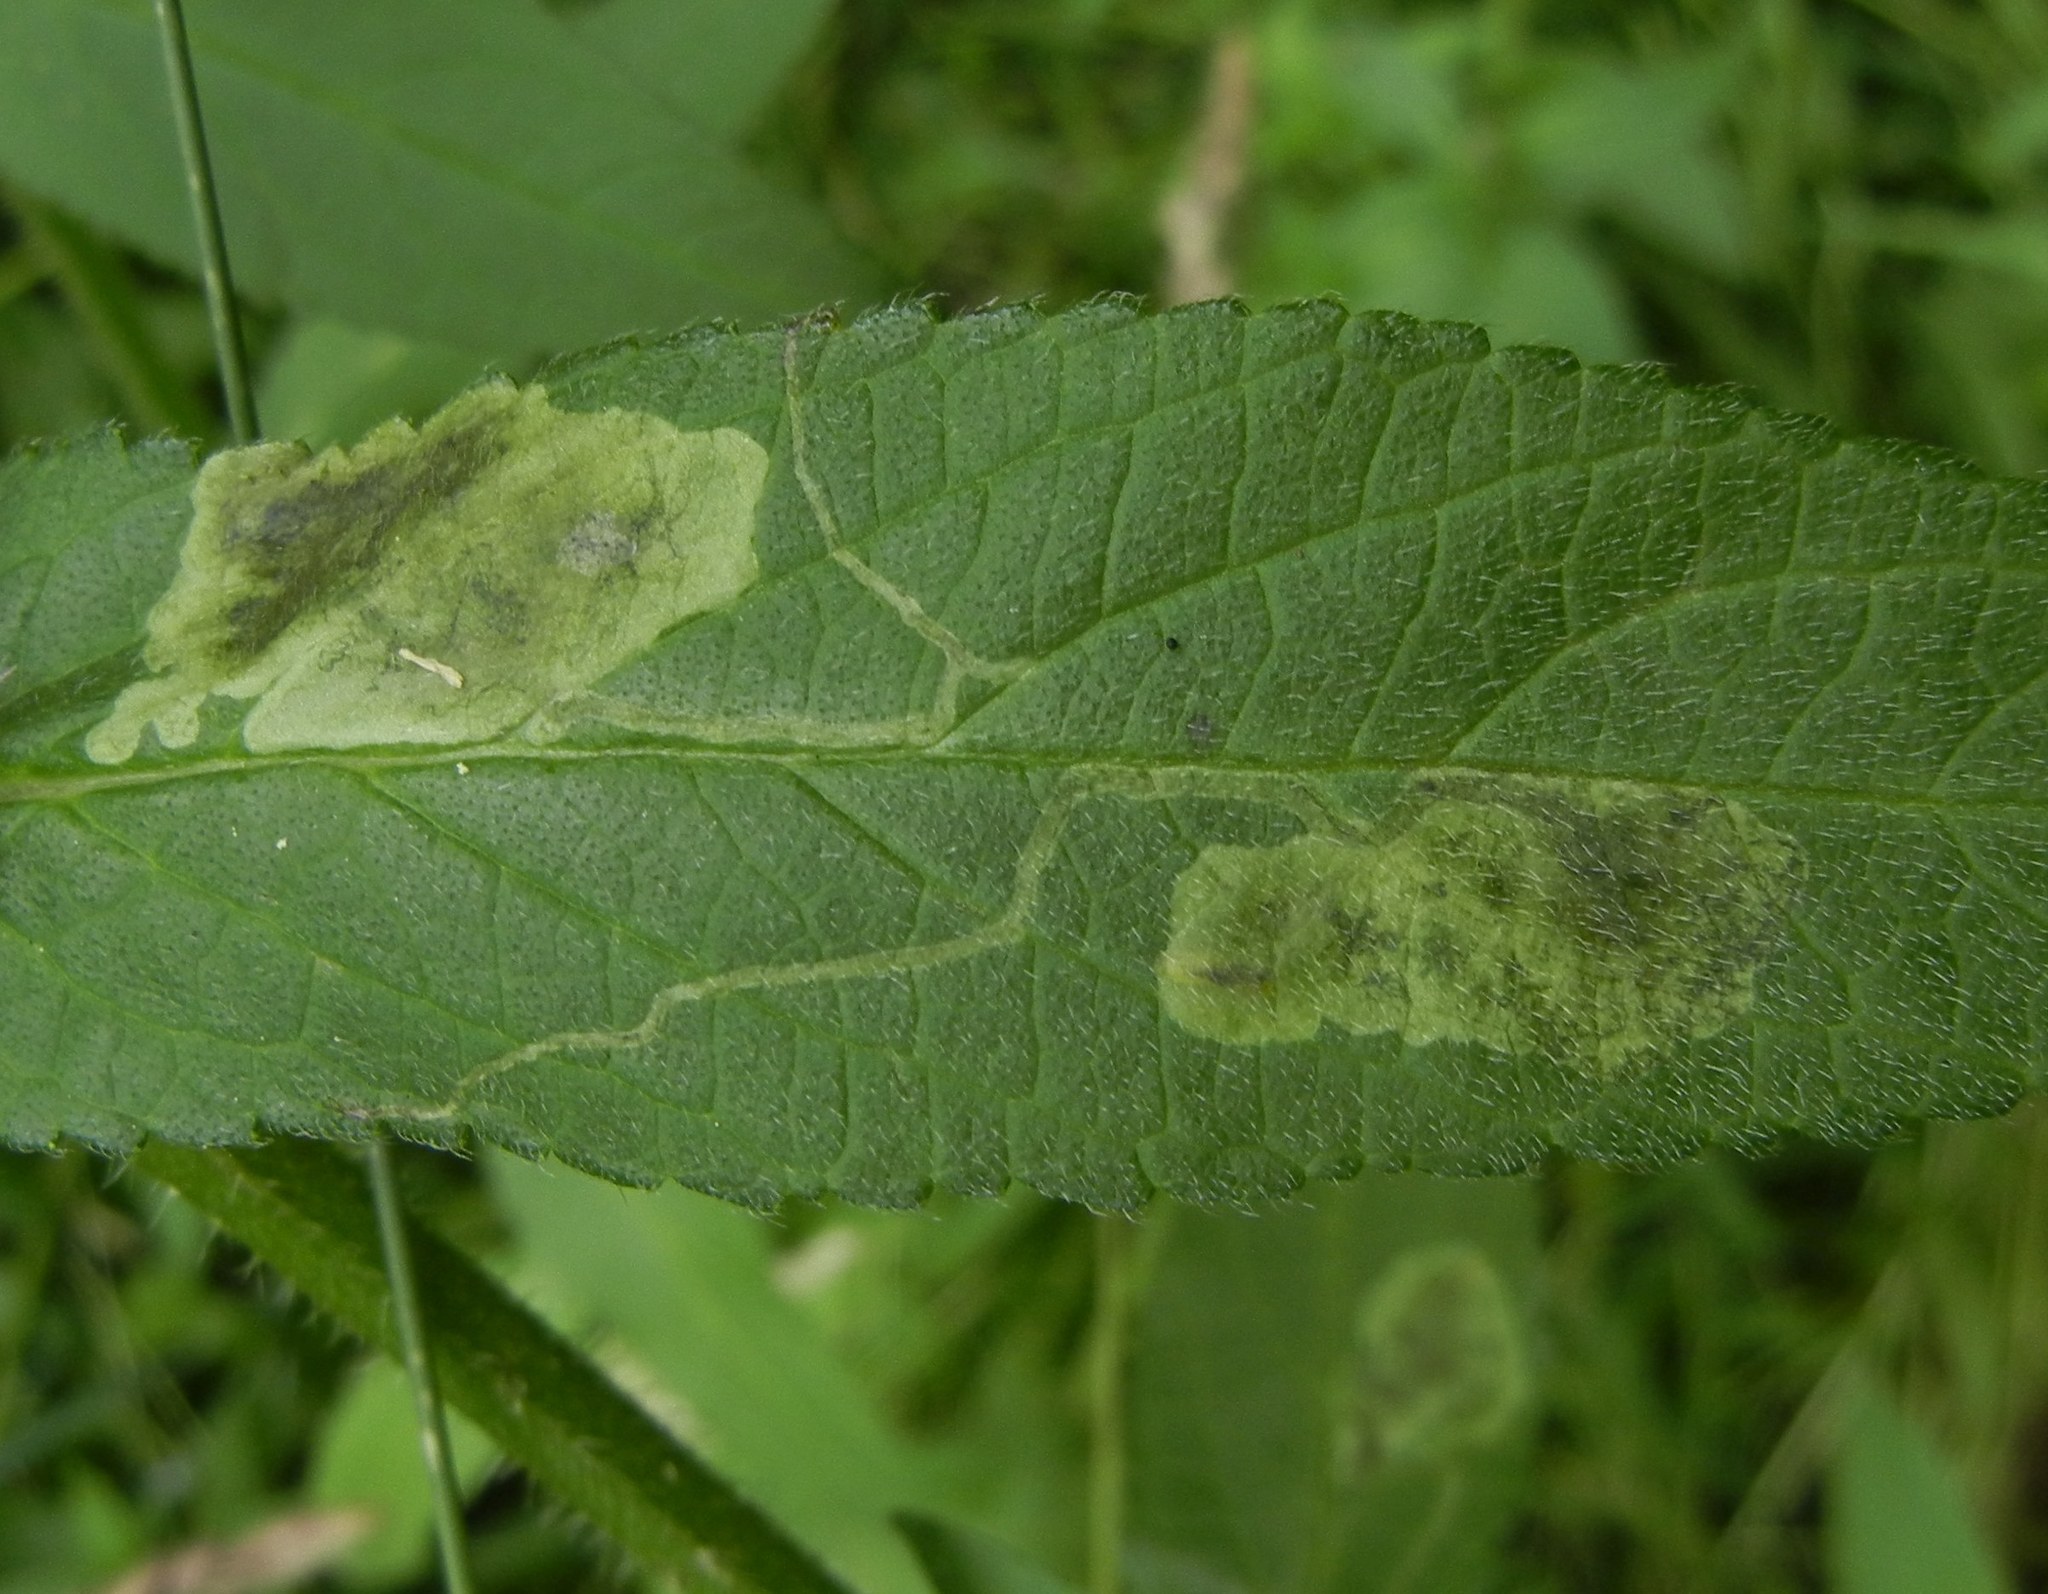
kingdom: Animalia
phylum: Arthropoda
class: Insecta
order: Diptera
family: Agromyzidae
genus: Amauromyza
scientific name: Amauromyza labiatarum
